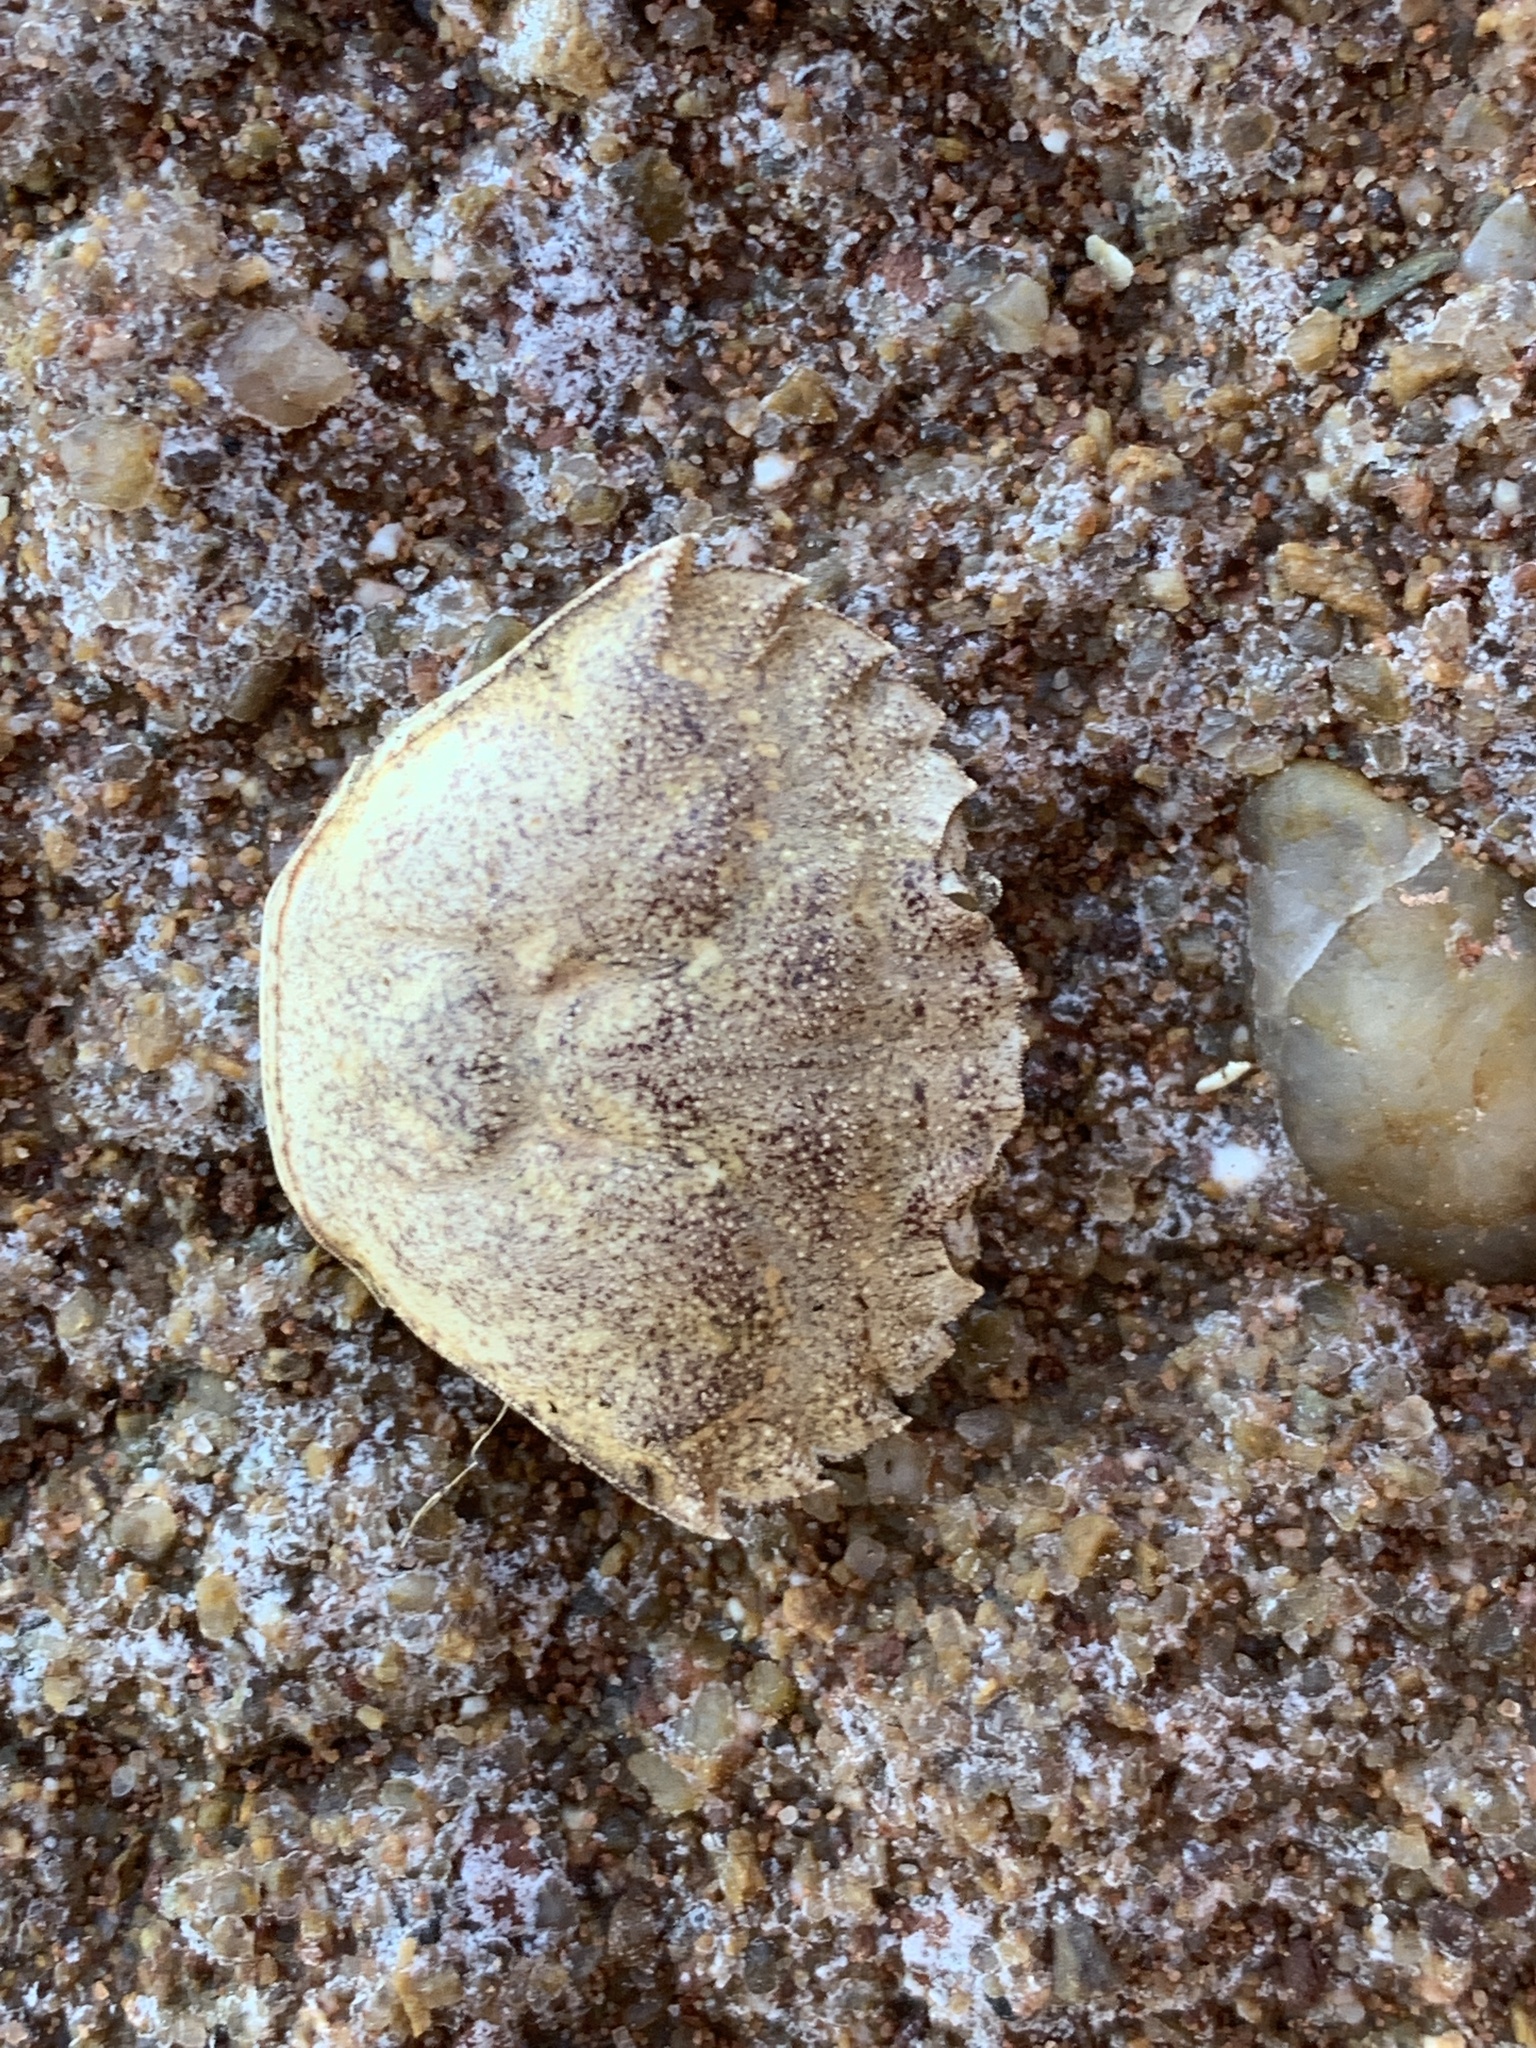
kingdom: Animalia
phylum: Arthropoda
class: Malacostraca
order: Decapoda
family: Carcinidae
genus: Carcinus
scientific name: Carcinus maenas
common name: European green crab
